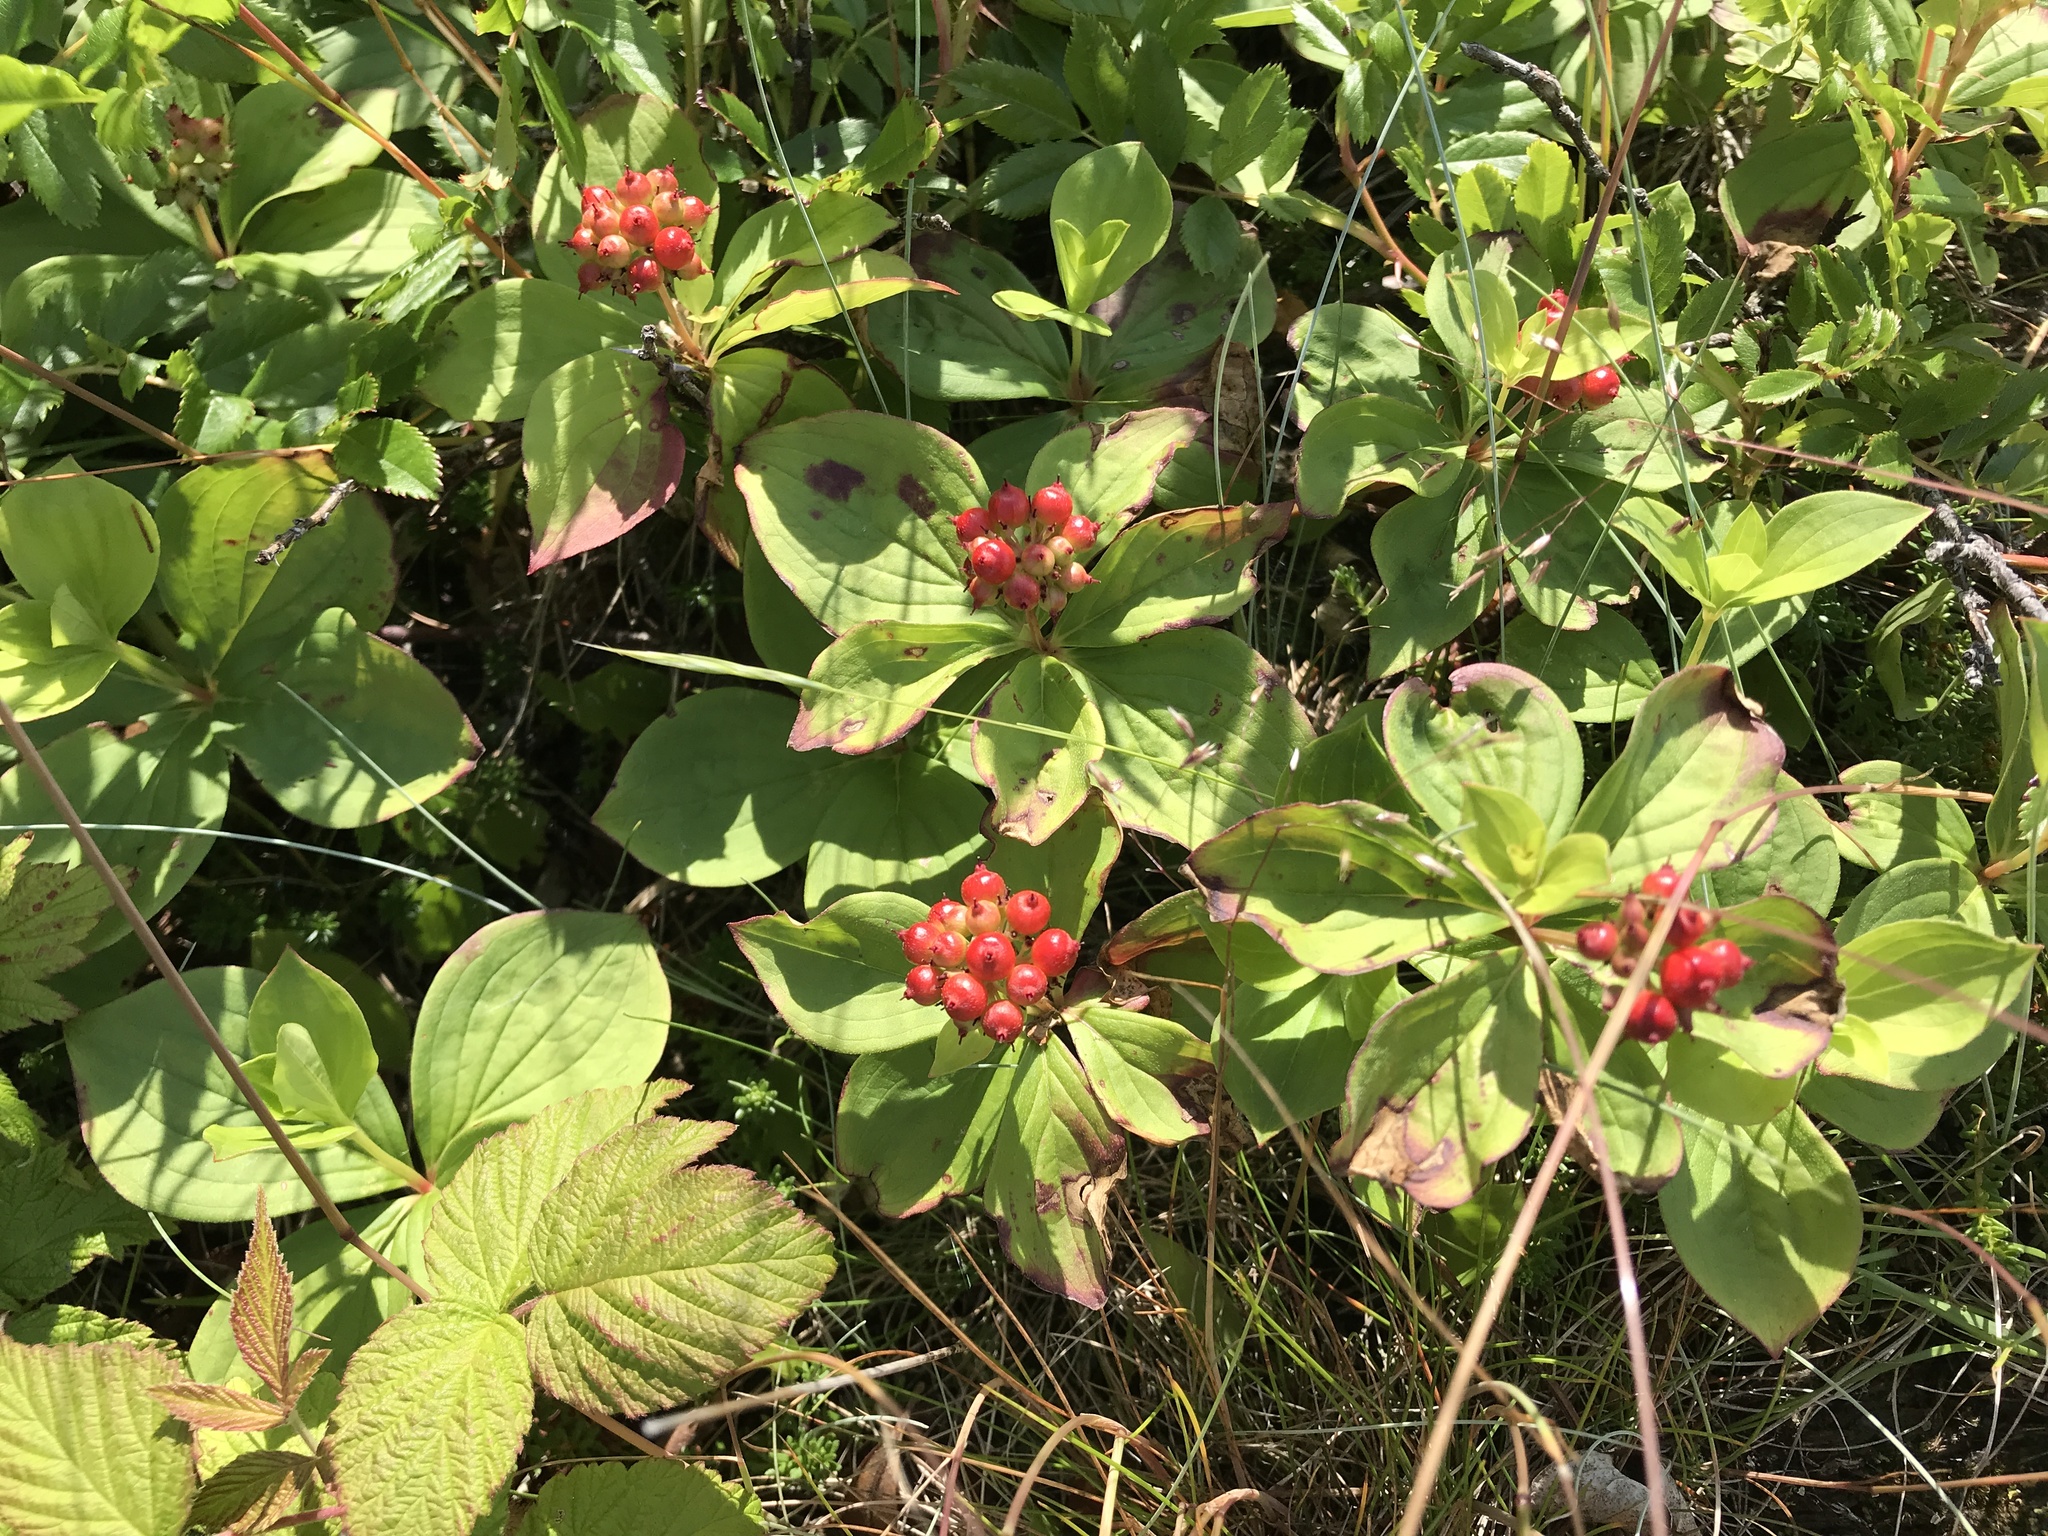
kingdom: Plantae
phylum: Tracheophyta
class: Magnoliopsida
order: Cornales
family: Cornaceae
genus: Cornus
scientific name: Cornus canadensis
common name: Creeping dogwood
